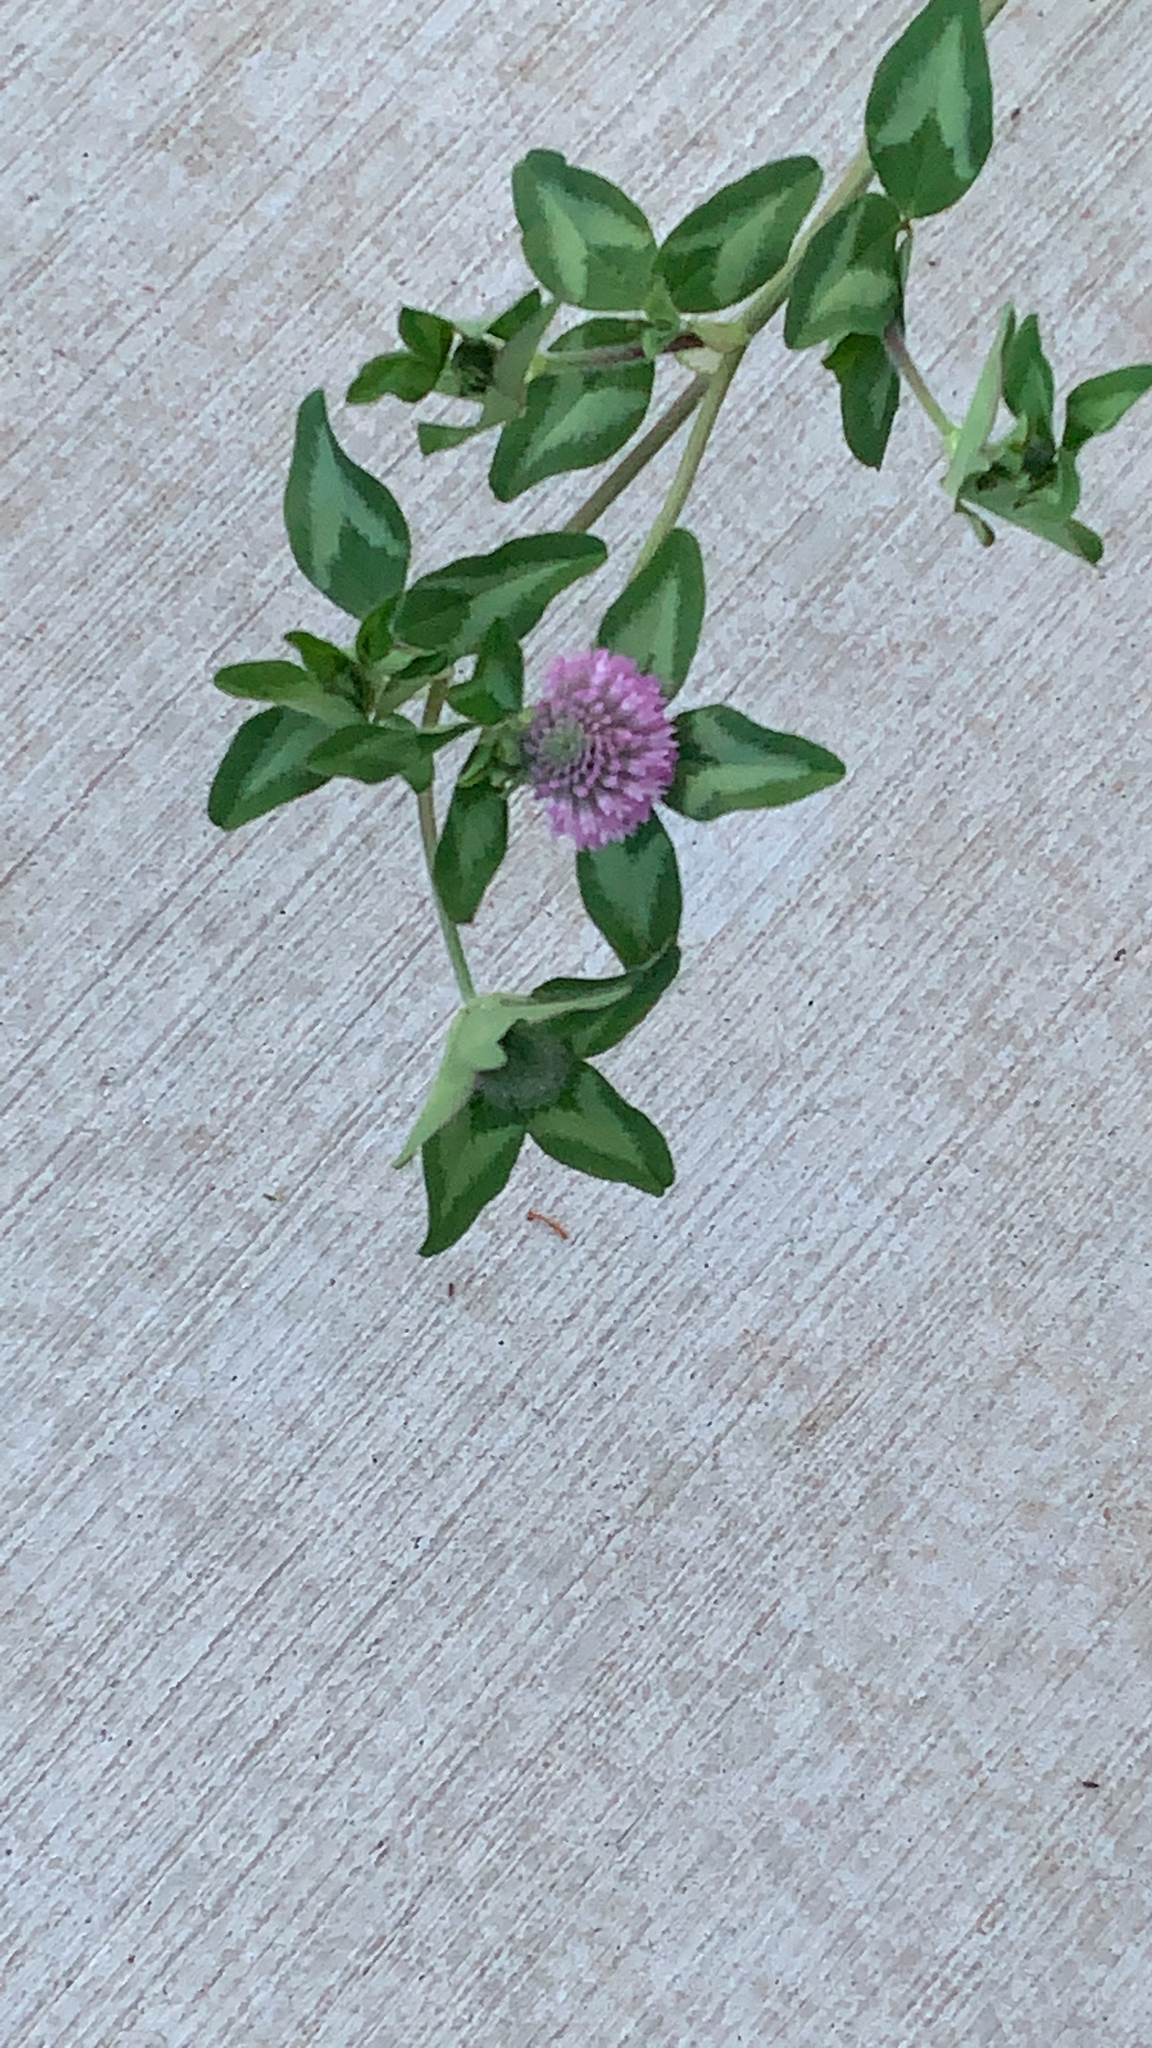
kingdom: Plantae
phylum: Tracheophyta
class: Magnoliopsida
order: Fabales
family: Fabaceae
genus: Trifolium
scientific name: Trifolium pratense
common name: Red clover
